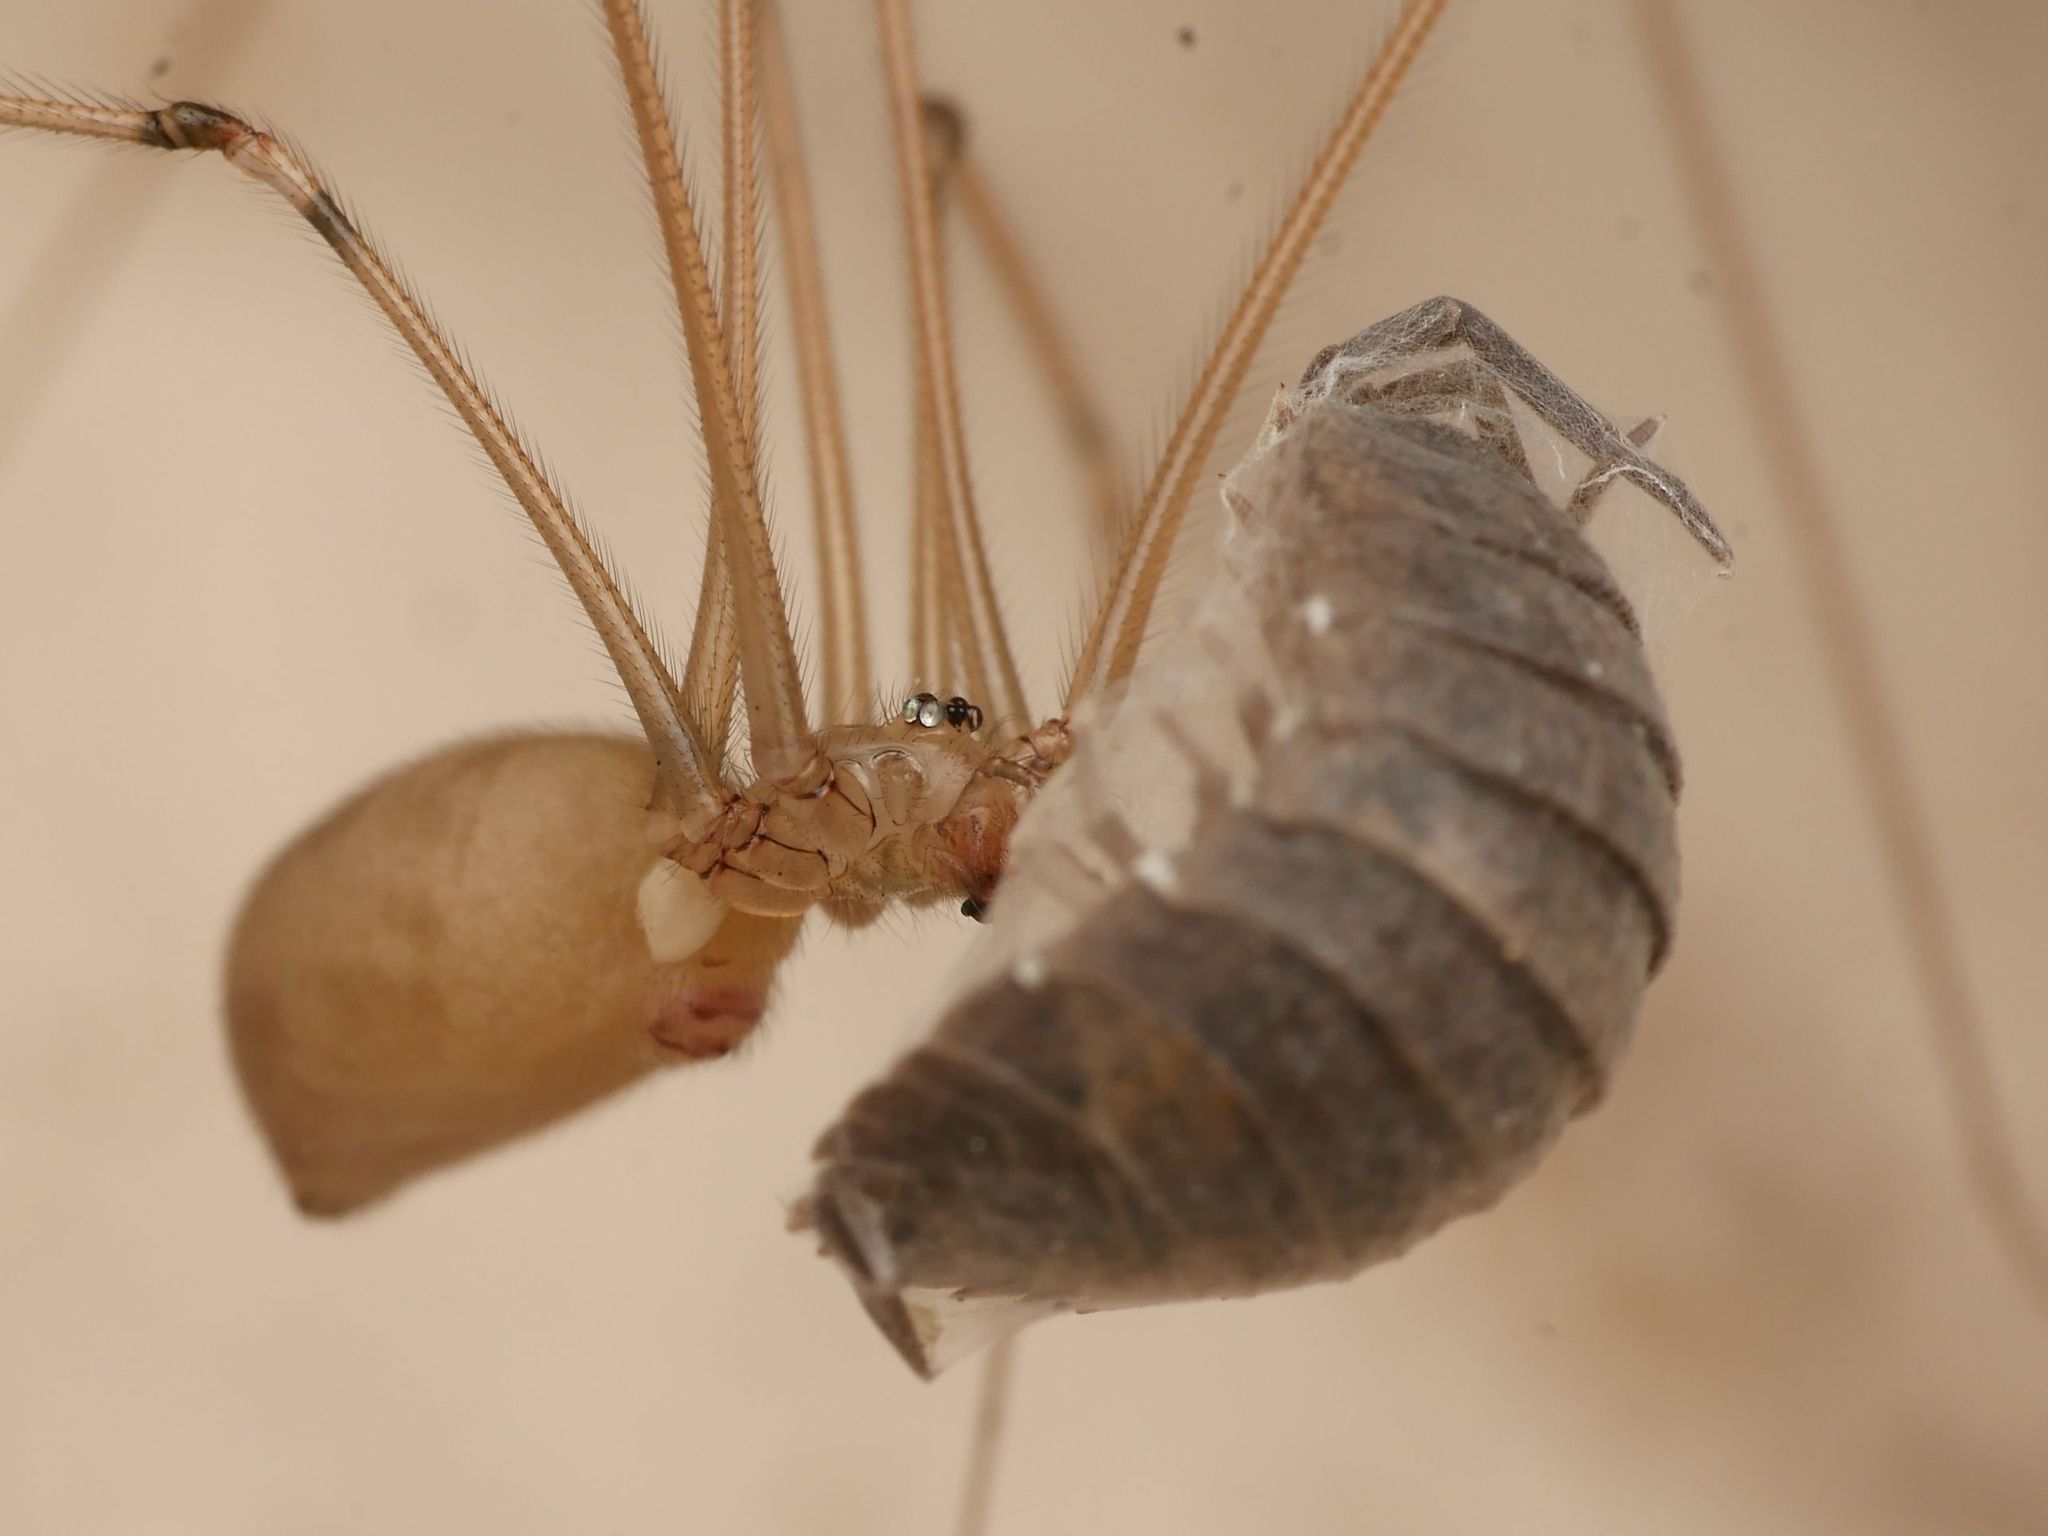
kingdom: Animalia
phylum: Arthropoda
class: Malacostraca
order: Isopoda
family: Porcellionidae
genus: Porcellio
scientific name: Porcellio scaber
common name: Common rough woodlouse
